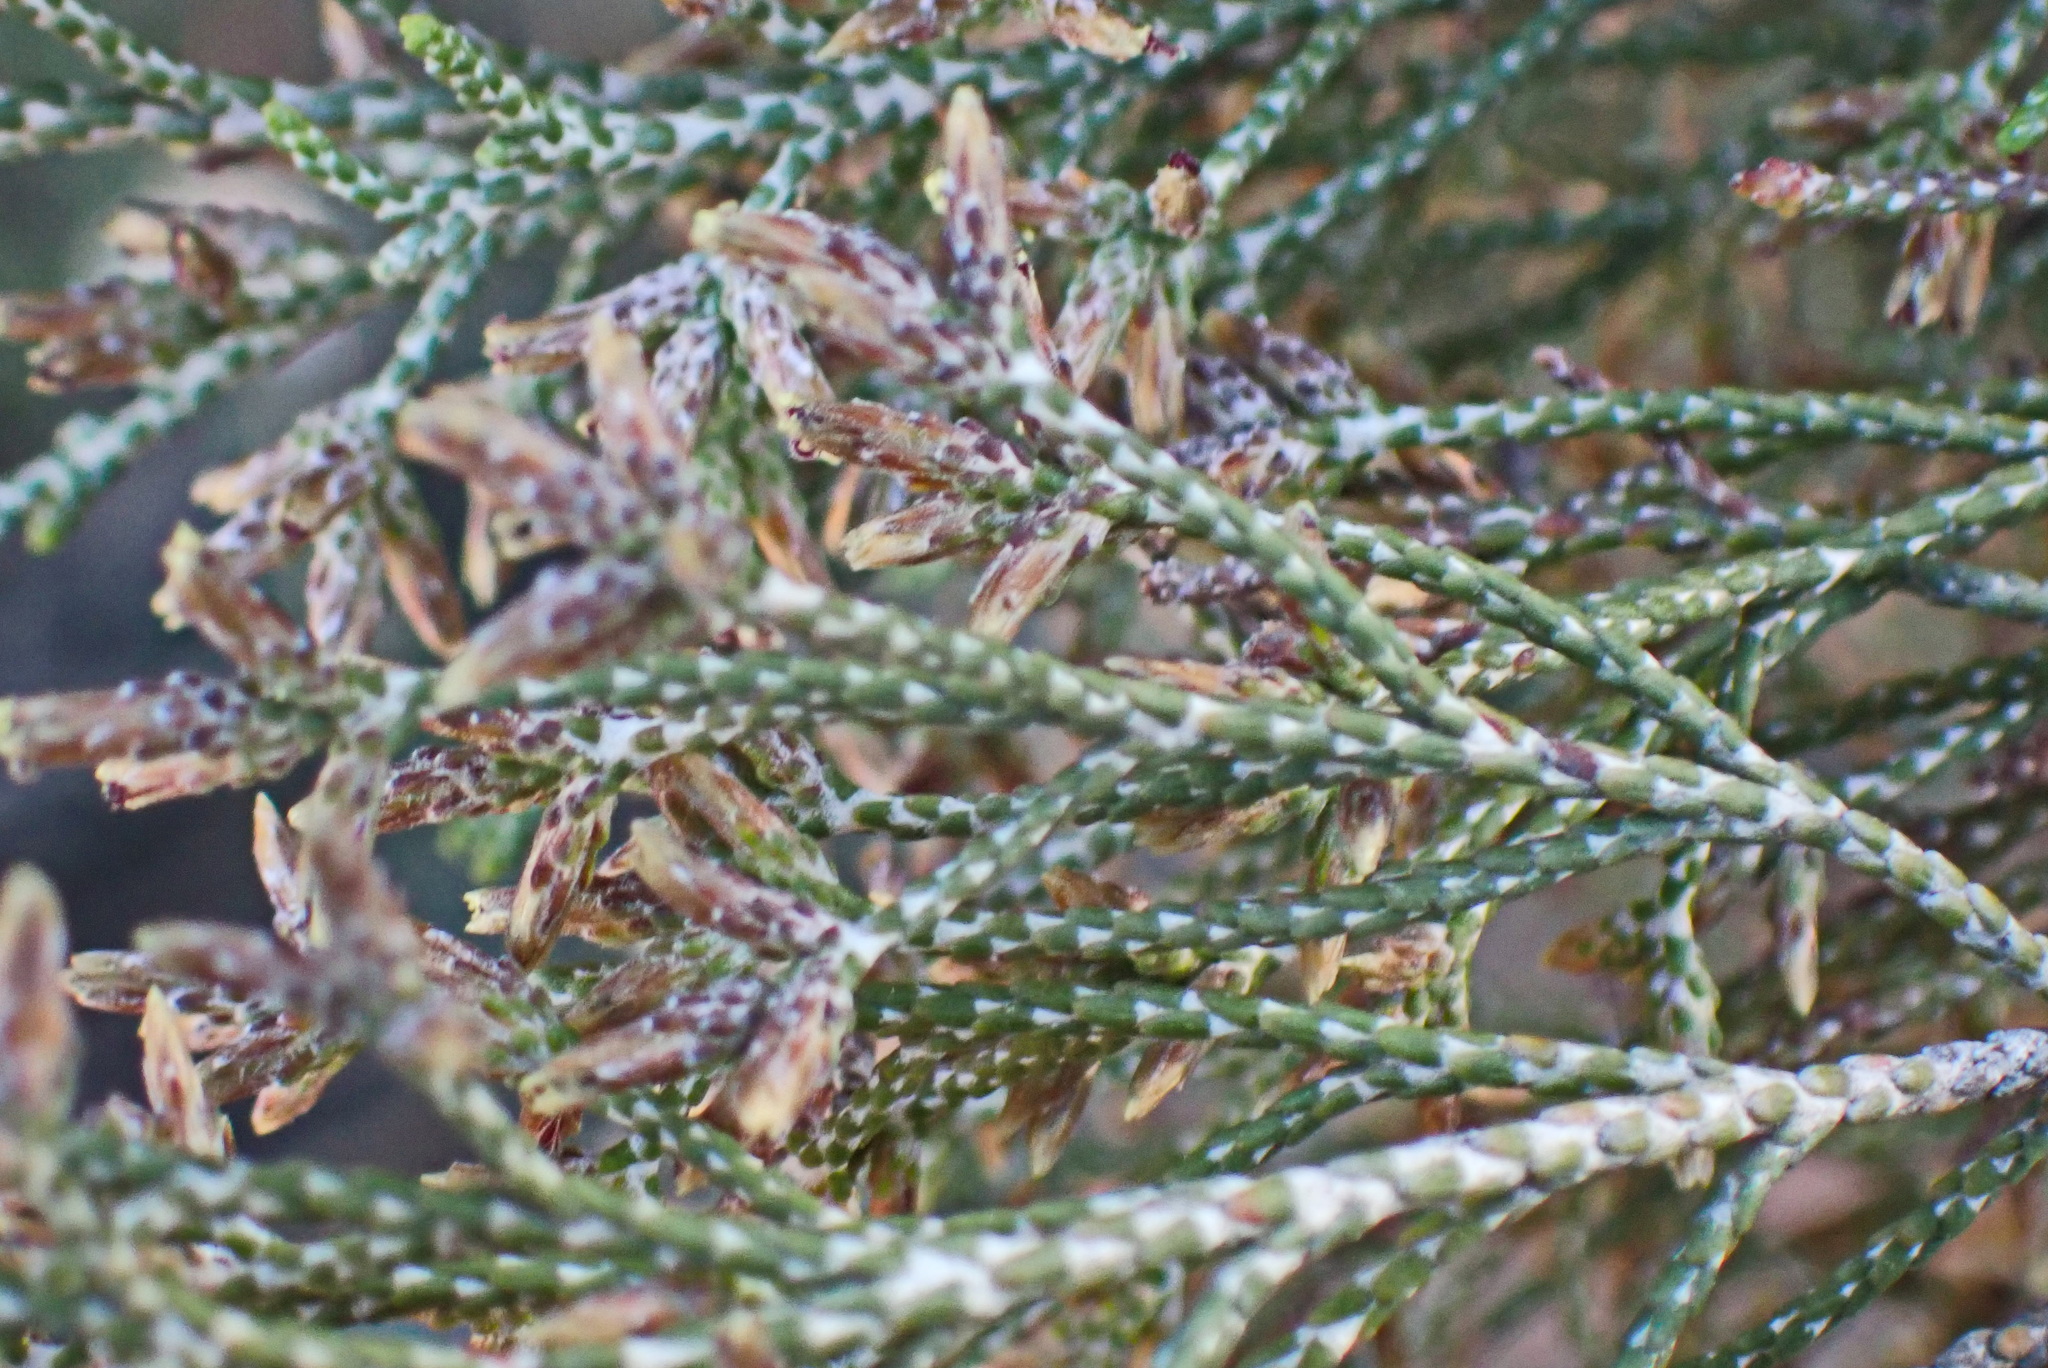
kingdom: Plantae
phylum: Tracheophyta
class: Magnoliopsida
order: Asterales
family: Asteraceae
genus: Dicerothamnus
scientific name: Dicerothamnus rhinocerotis
